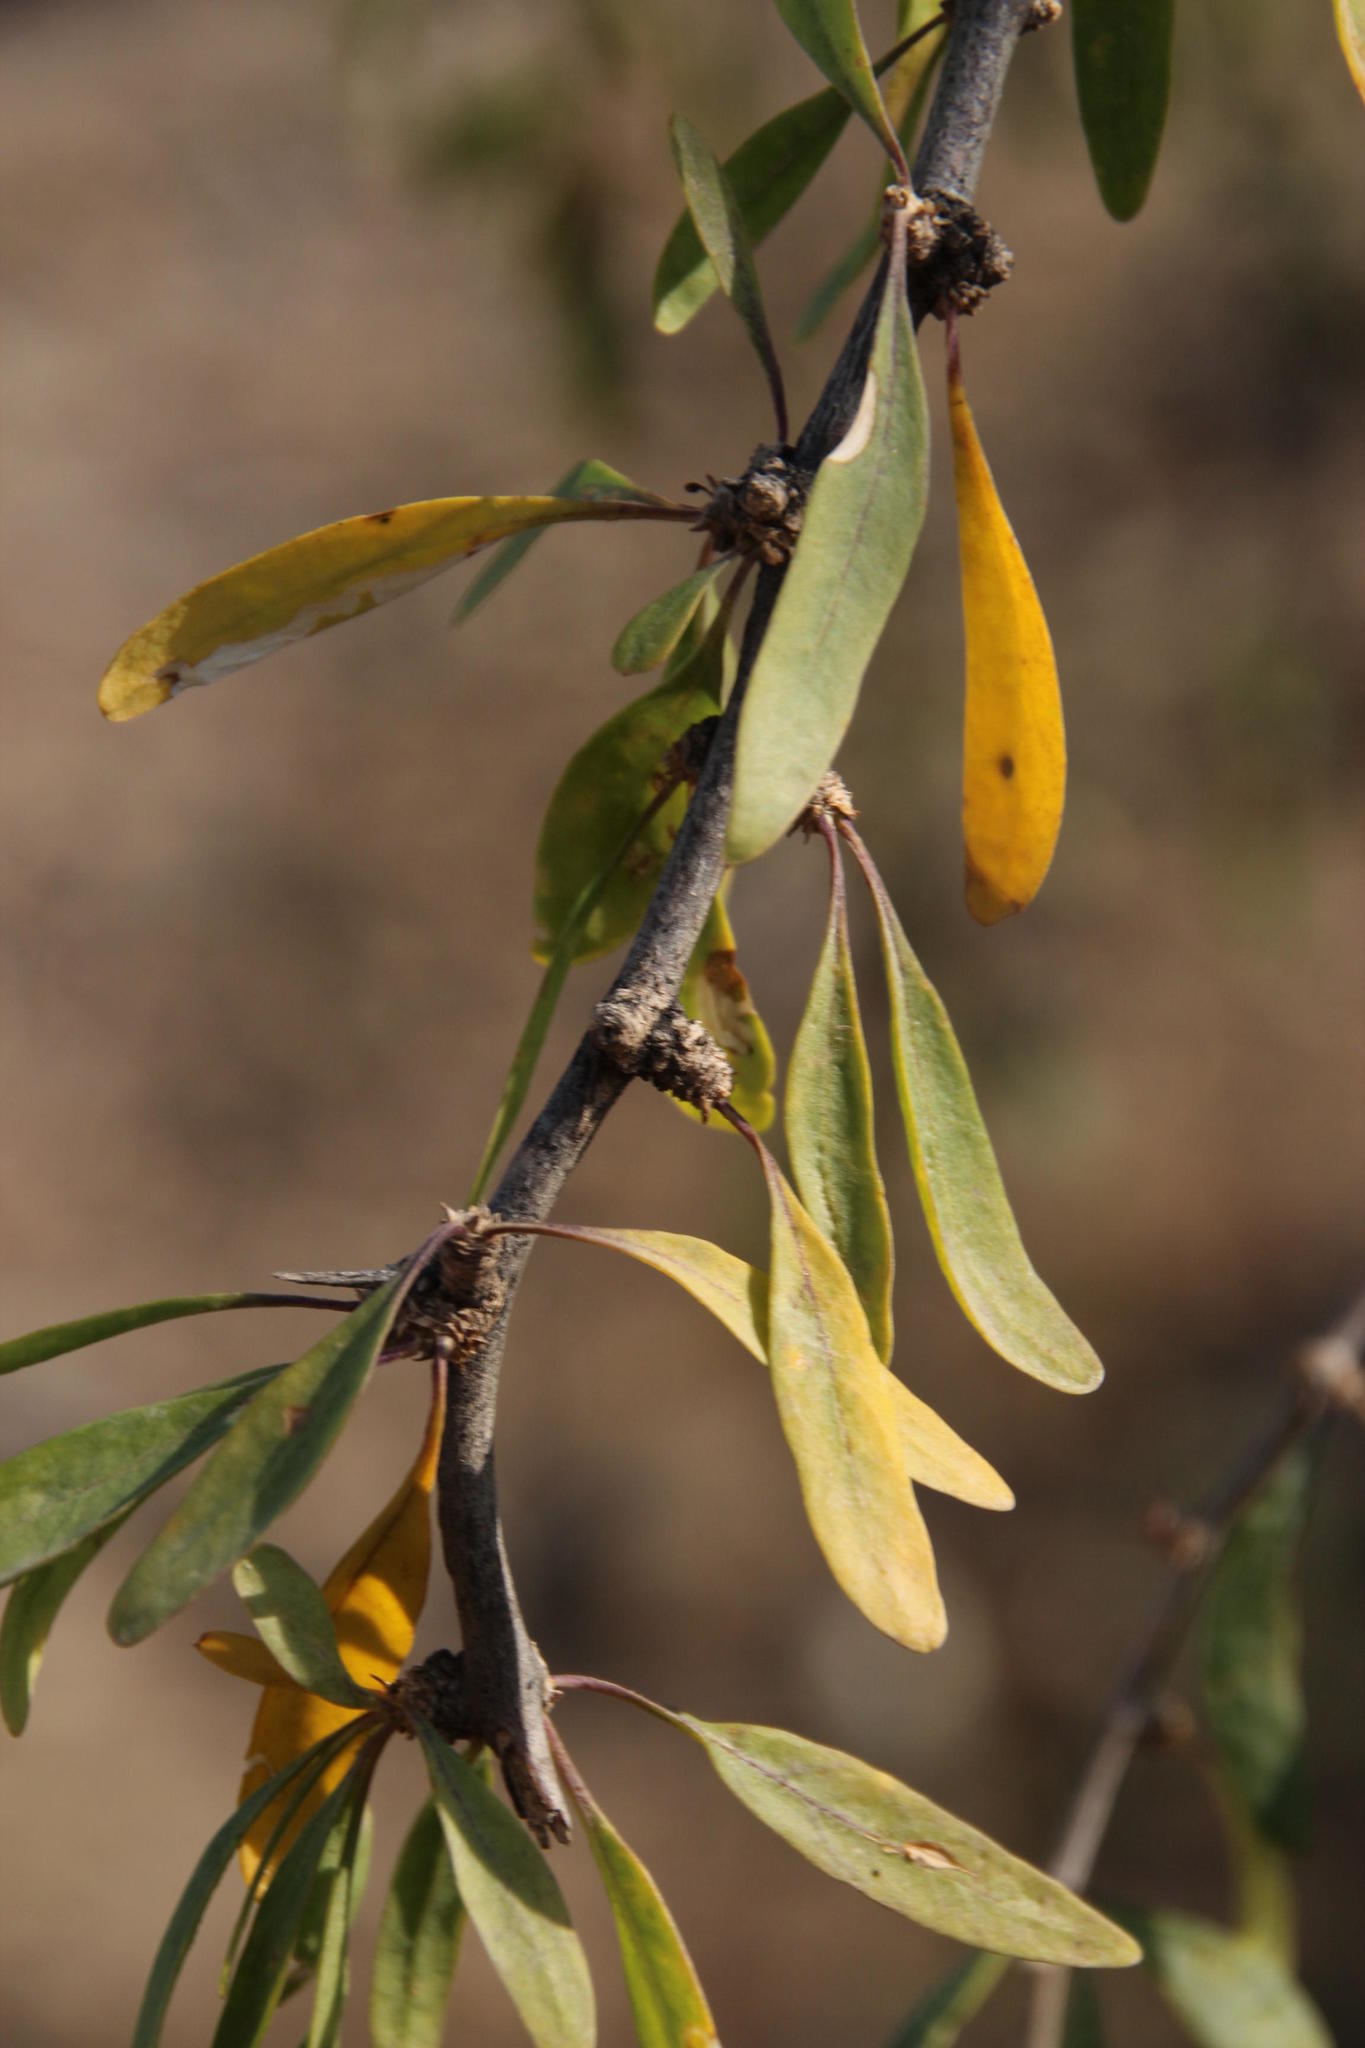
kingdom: Plantae
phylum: Tracheophyta
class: Magnoliopsida
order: Solanales
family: Solanaceae
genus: Lycium
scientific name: Lycium oxycarpum
